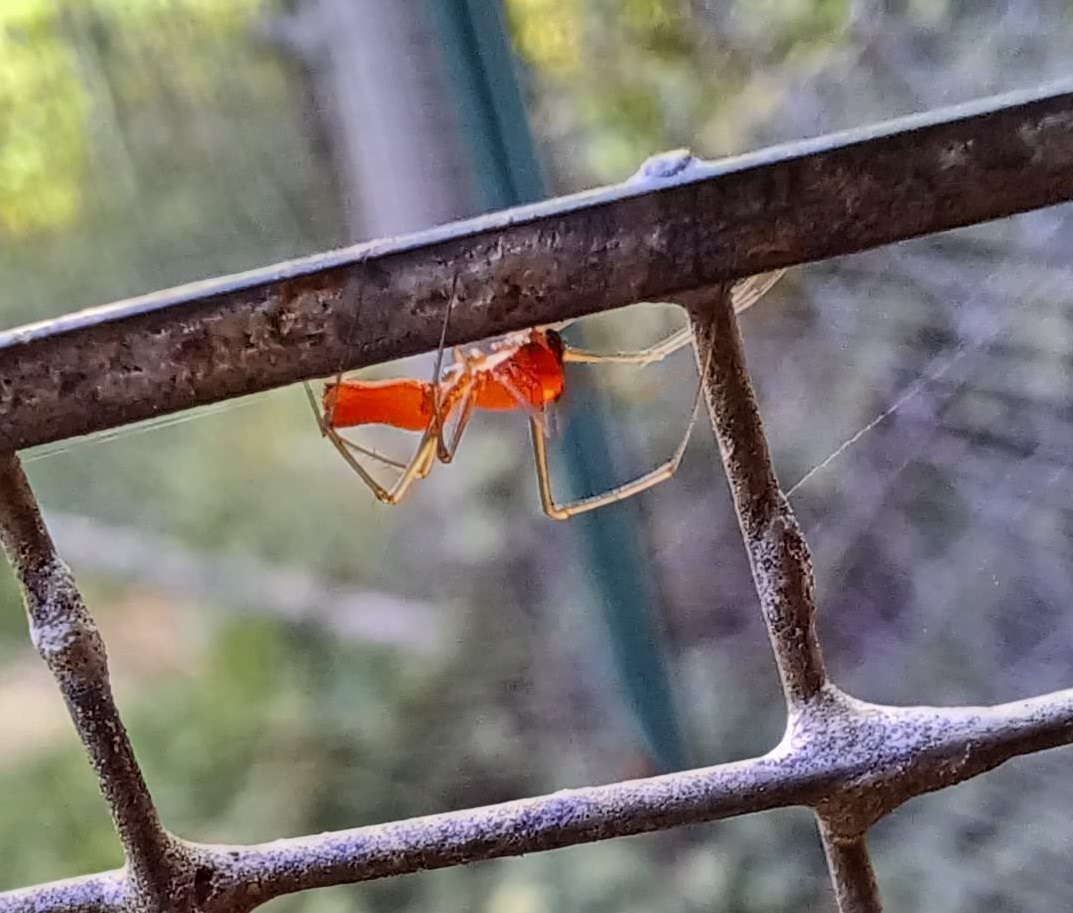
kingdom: Animalia
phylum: Arthropoda
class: Arachnida
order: Araneae
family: Linyphiidae
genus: Florinda
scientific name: Florinda coccinea
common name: Black-tailed red sheetweaver
